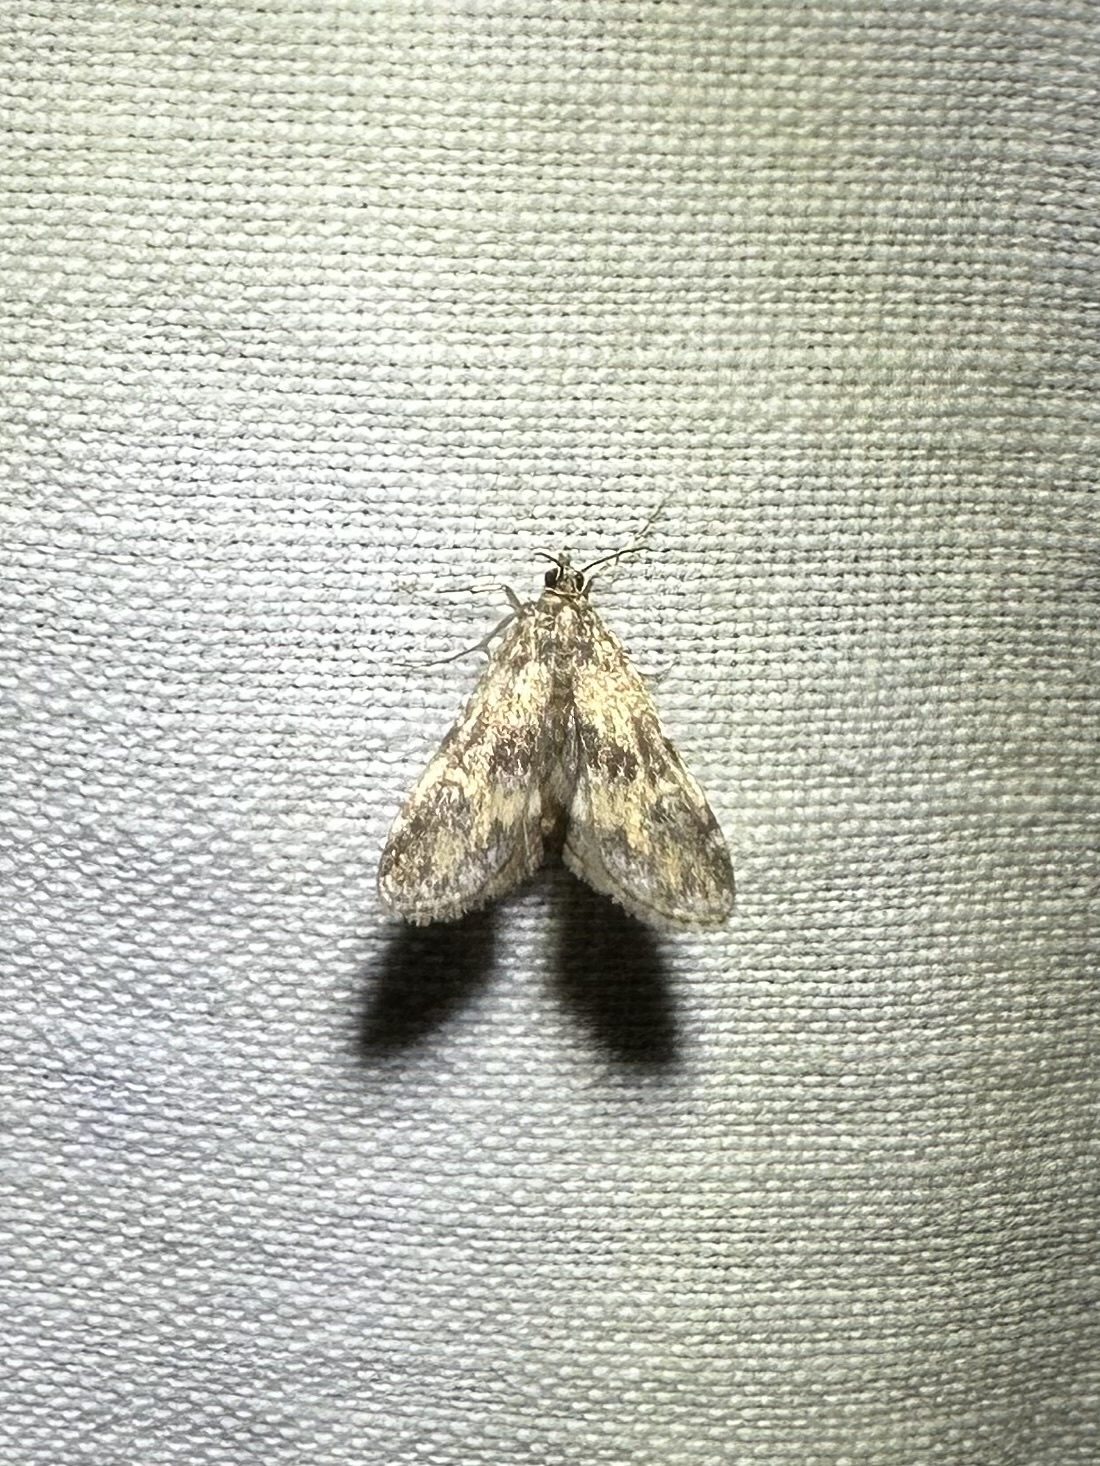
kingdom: Animalia
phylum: Arthropoda
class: Insecta
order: Lepidoptera
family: Crambidae
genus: Elophila
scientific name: Elophila obliteralis
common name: Waterlily leafcutter moth
